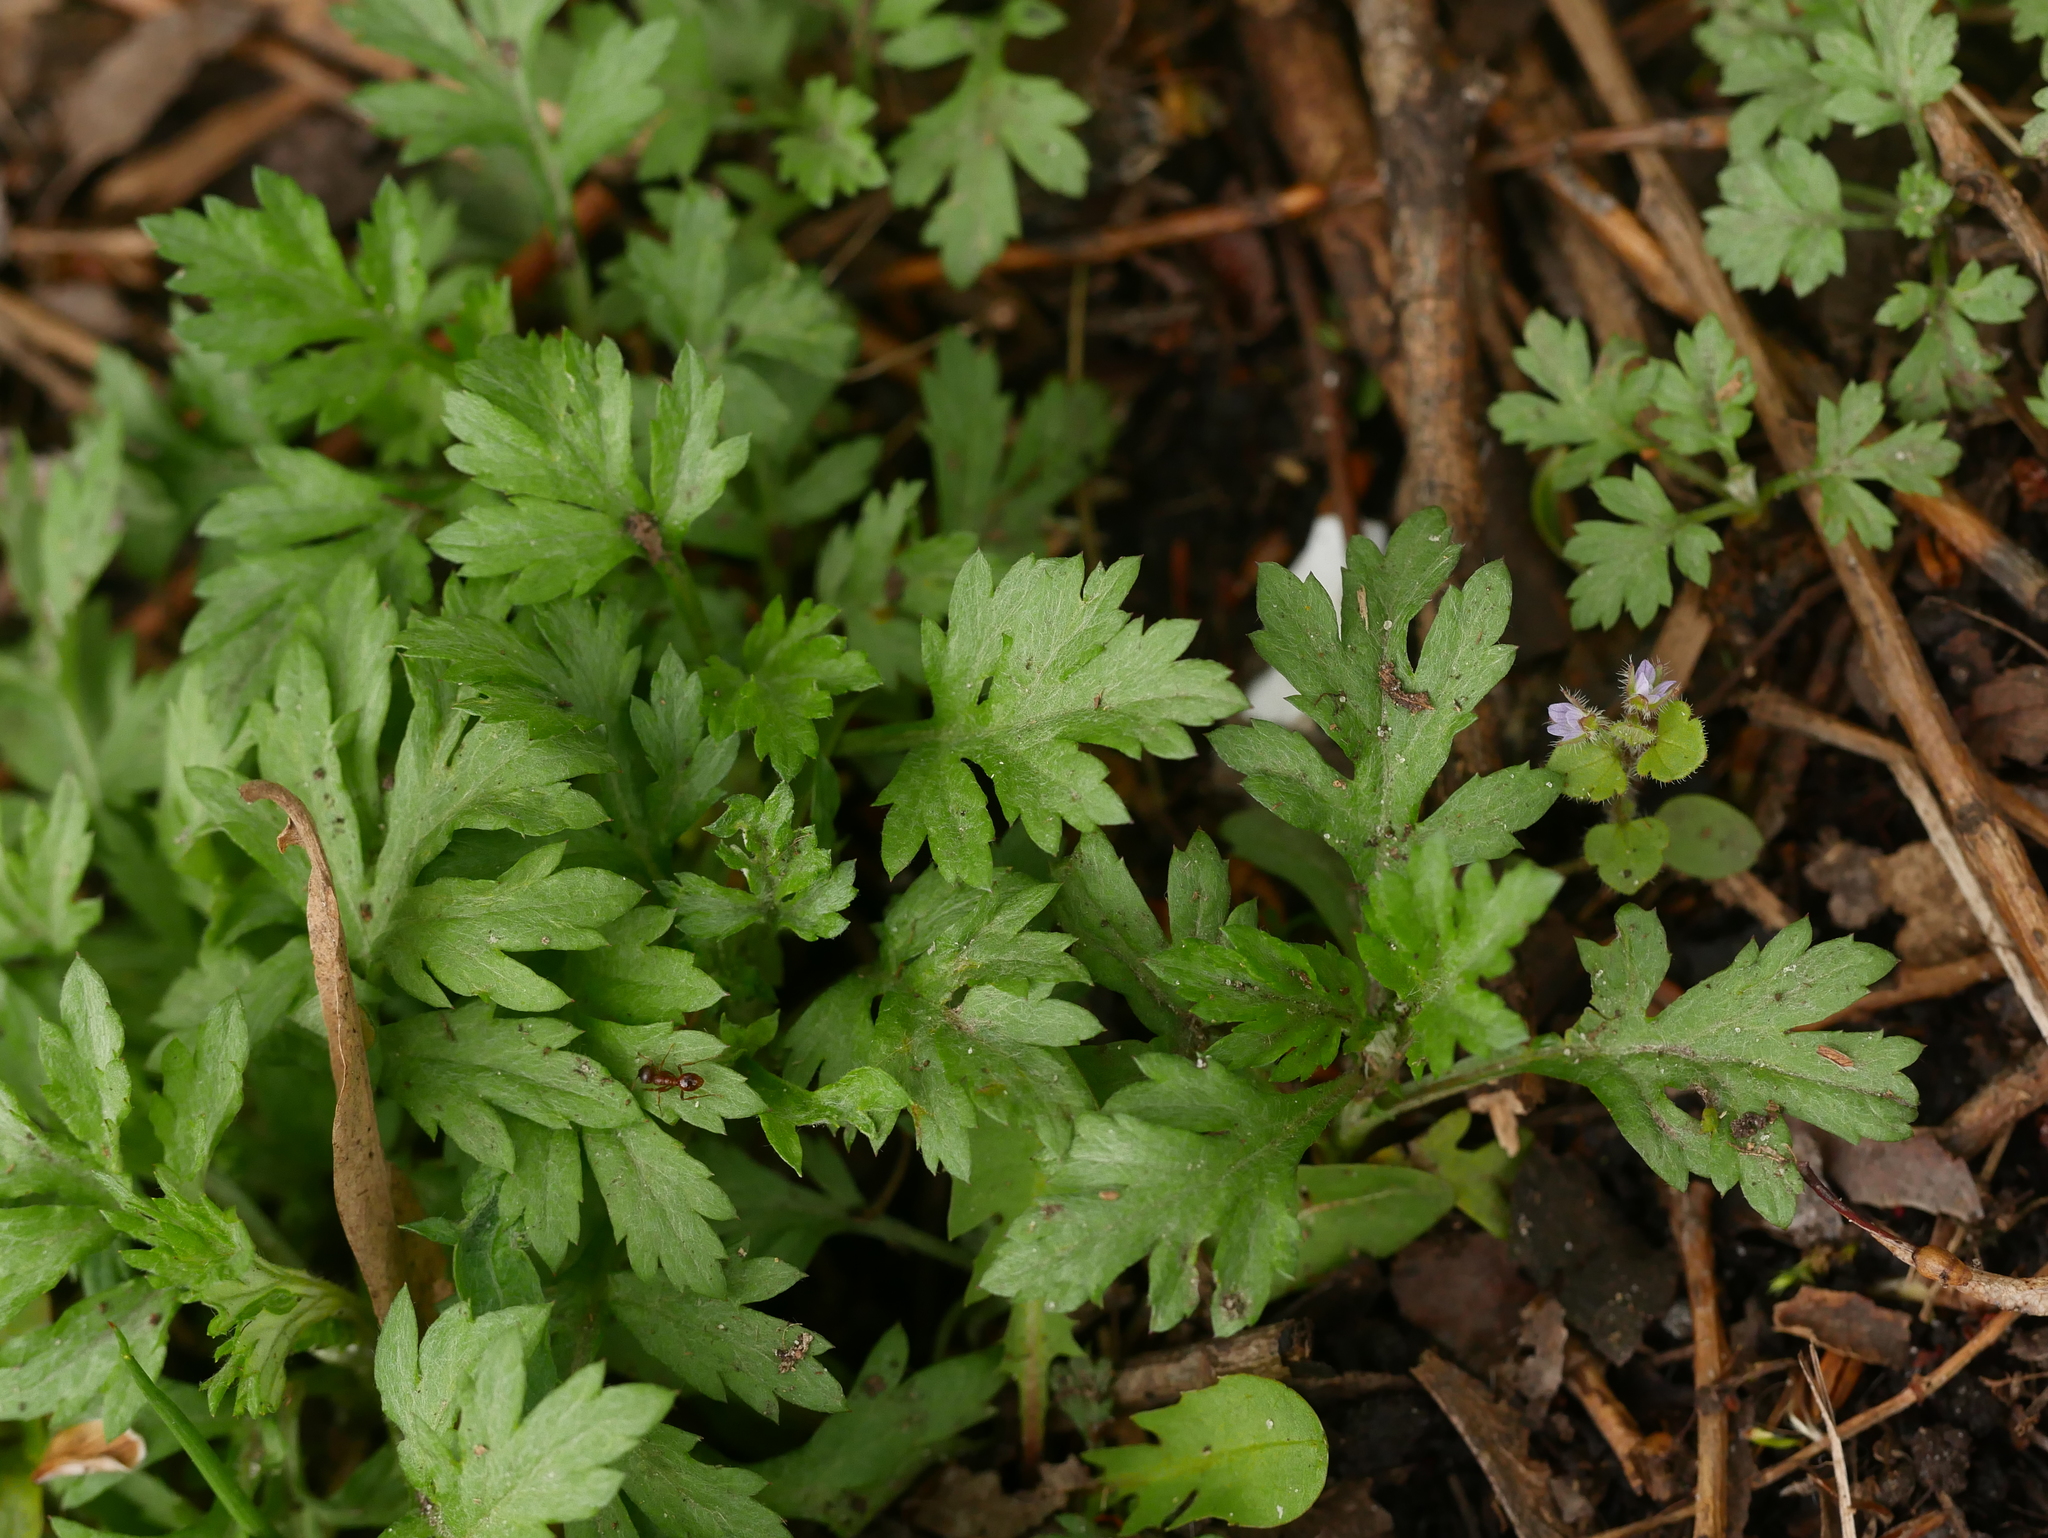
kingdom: Plantae
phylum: Tracheophyta
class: Magnoliopsida
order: Asterales
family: Asteraceae
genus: Artemisia
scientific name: Artemisia vulgaris
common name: Mugwort
